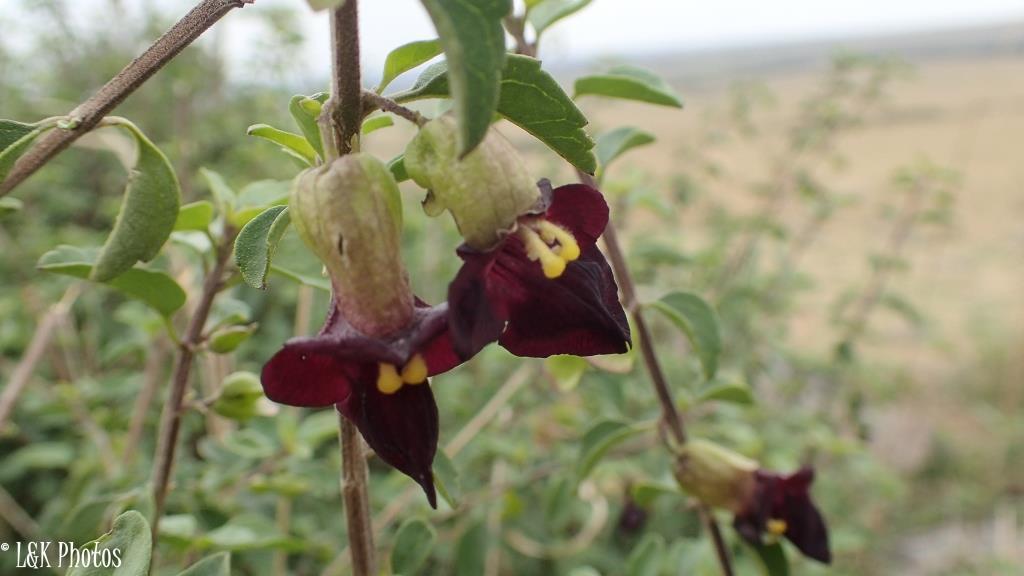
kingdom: Plantae
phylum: Tracheophyta
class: Magnoliopsida
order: Lamiales
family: Lamiaceae
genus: Tinnea
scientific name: Tinnea aethiopica
